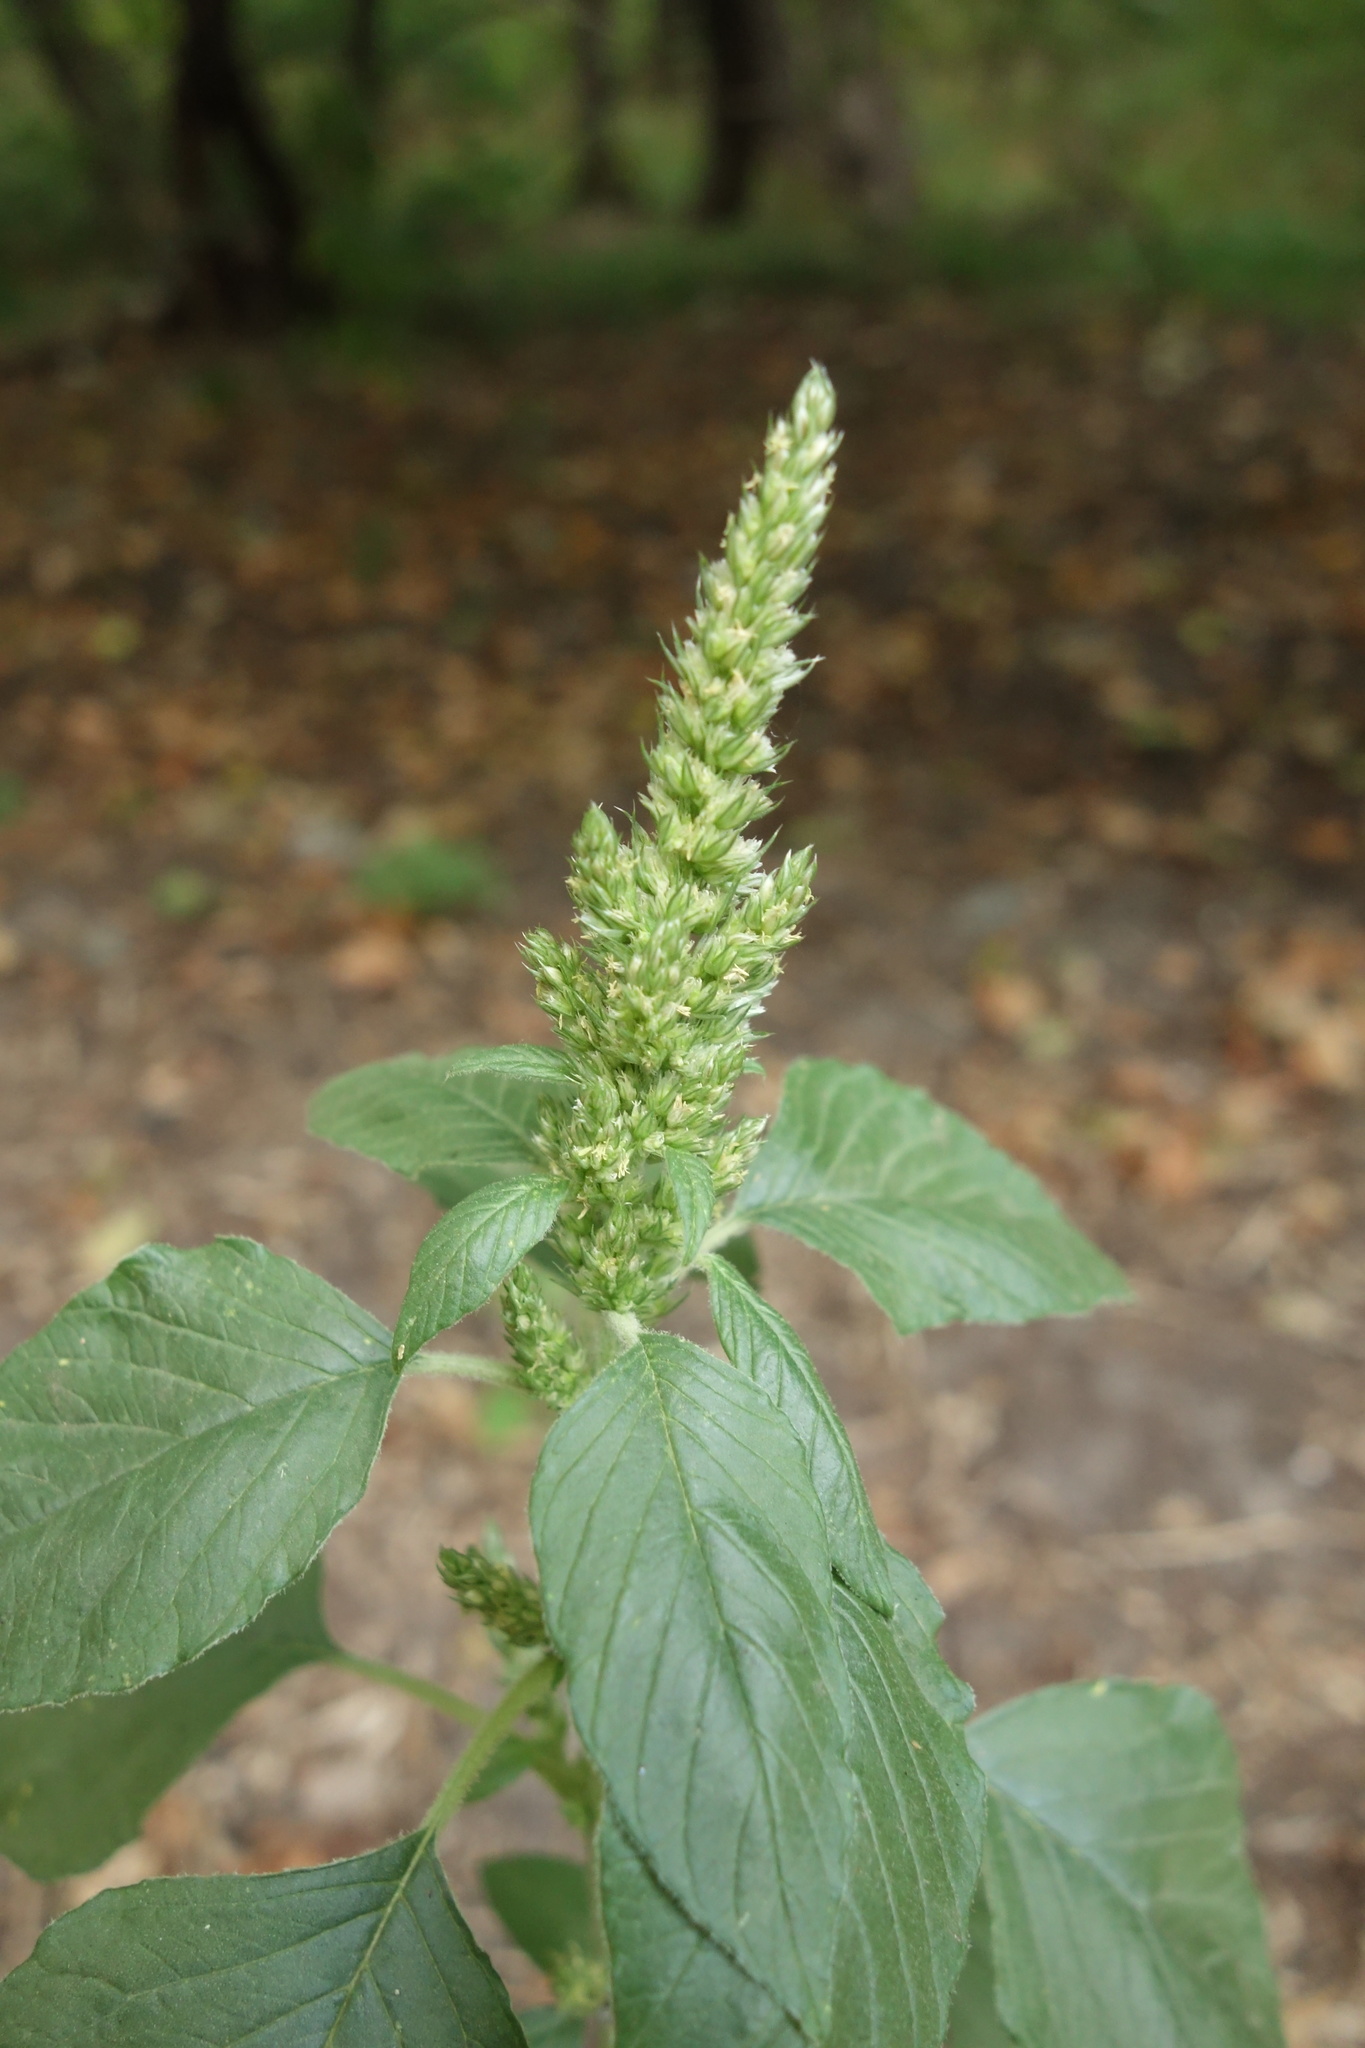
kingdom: Plantae
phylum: Tracheophyta
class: Magnoliopsida
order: Caryophyllales
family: Amaranthaceae
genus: Amaranthus
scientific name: Amaranthus retroflexus
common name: Redroot amaranth
